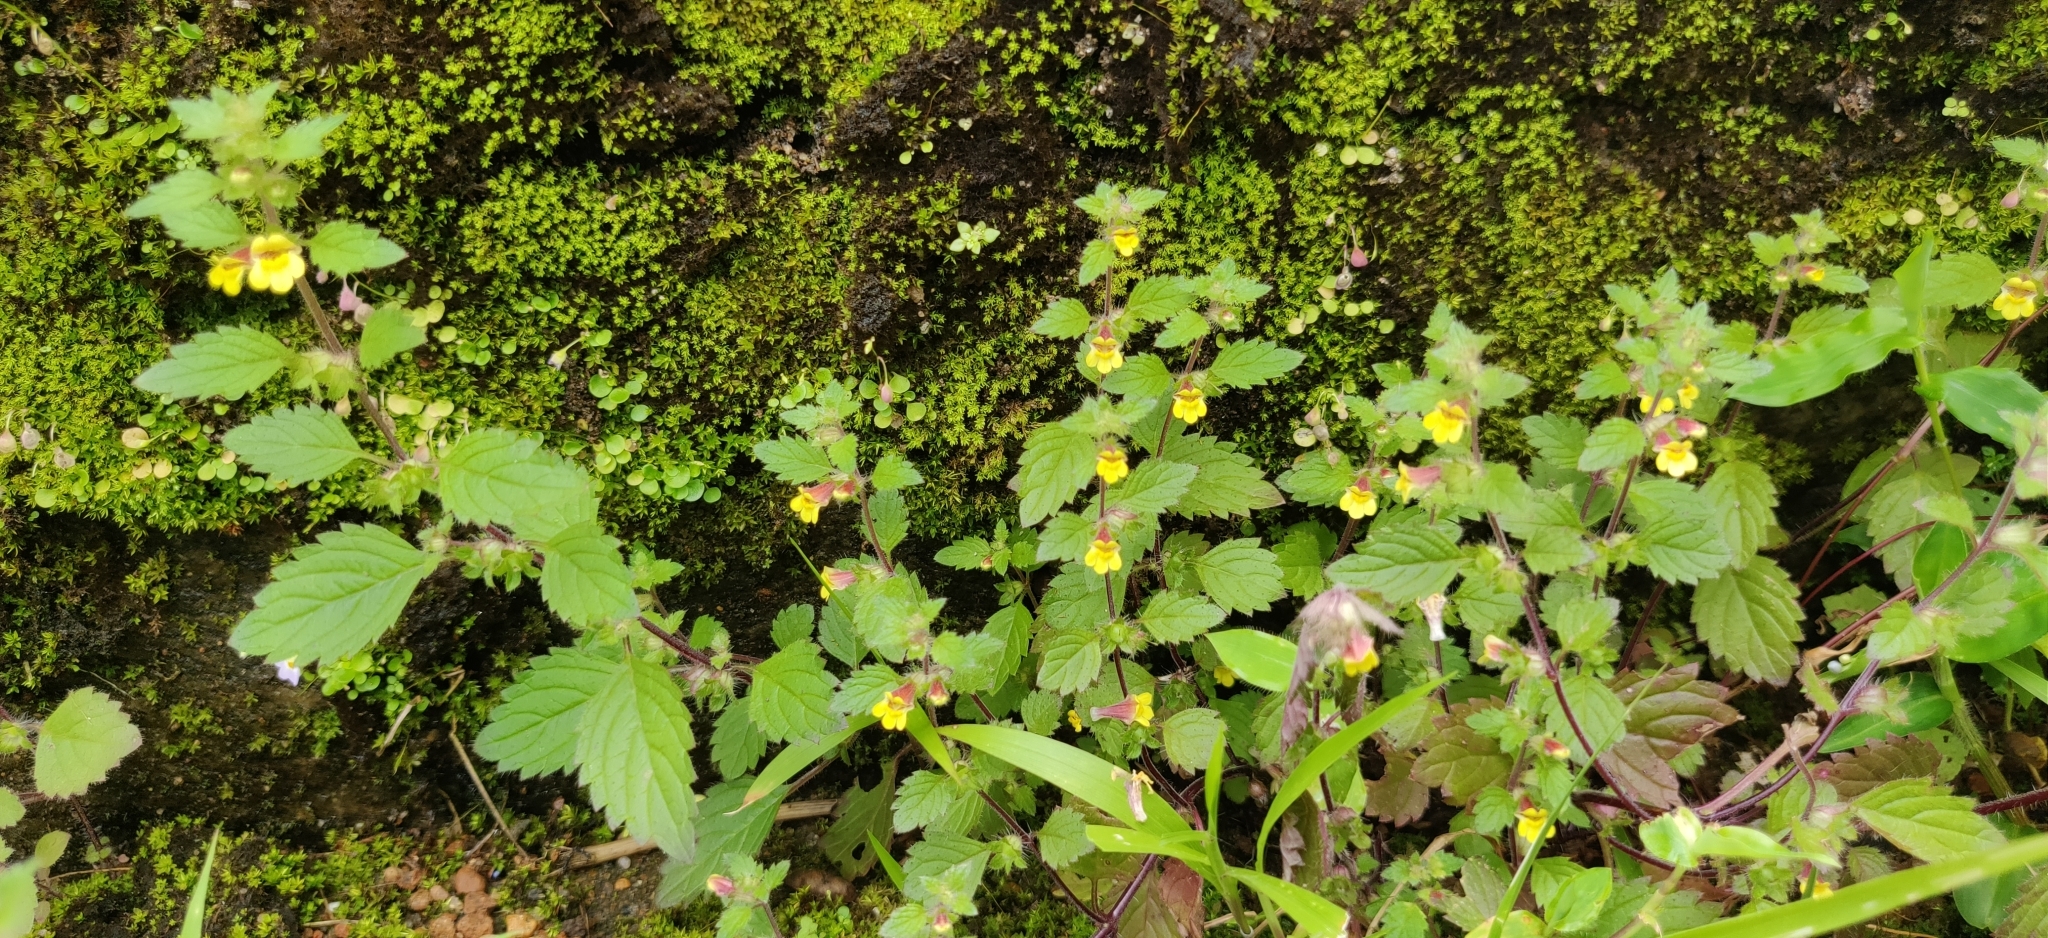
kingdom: Plantae
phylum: Tracheophyta
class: Magnoliopsida
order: Lamiales
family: Orobanchaceae
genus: Lindenbergia
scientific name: Lindenbergia muraria
